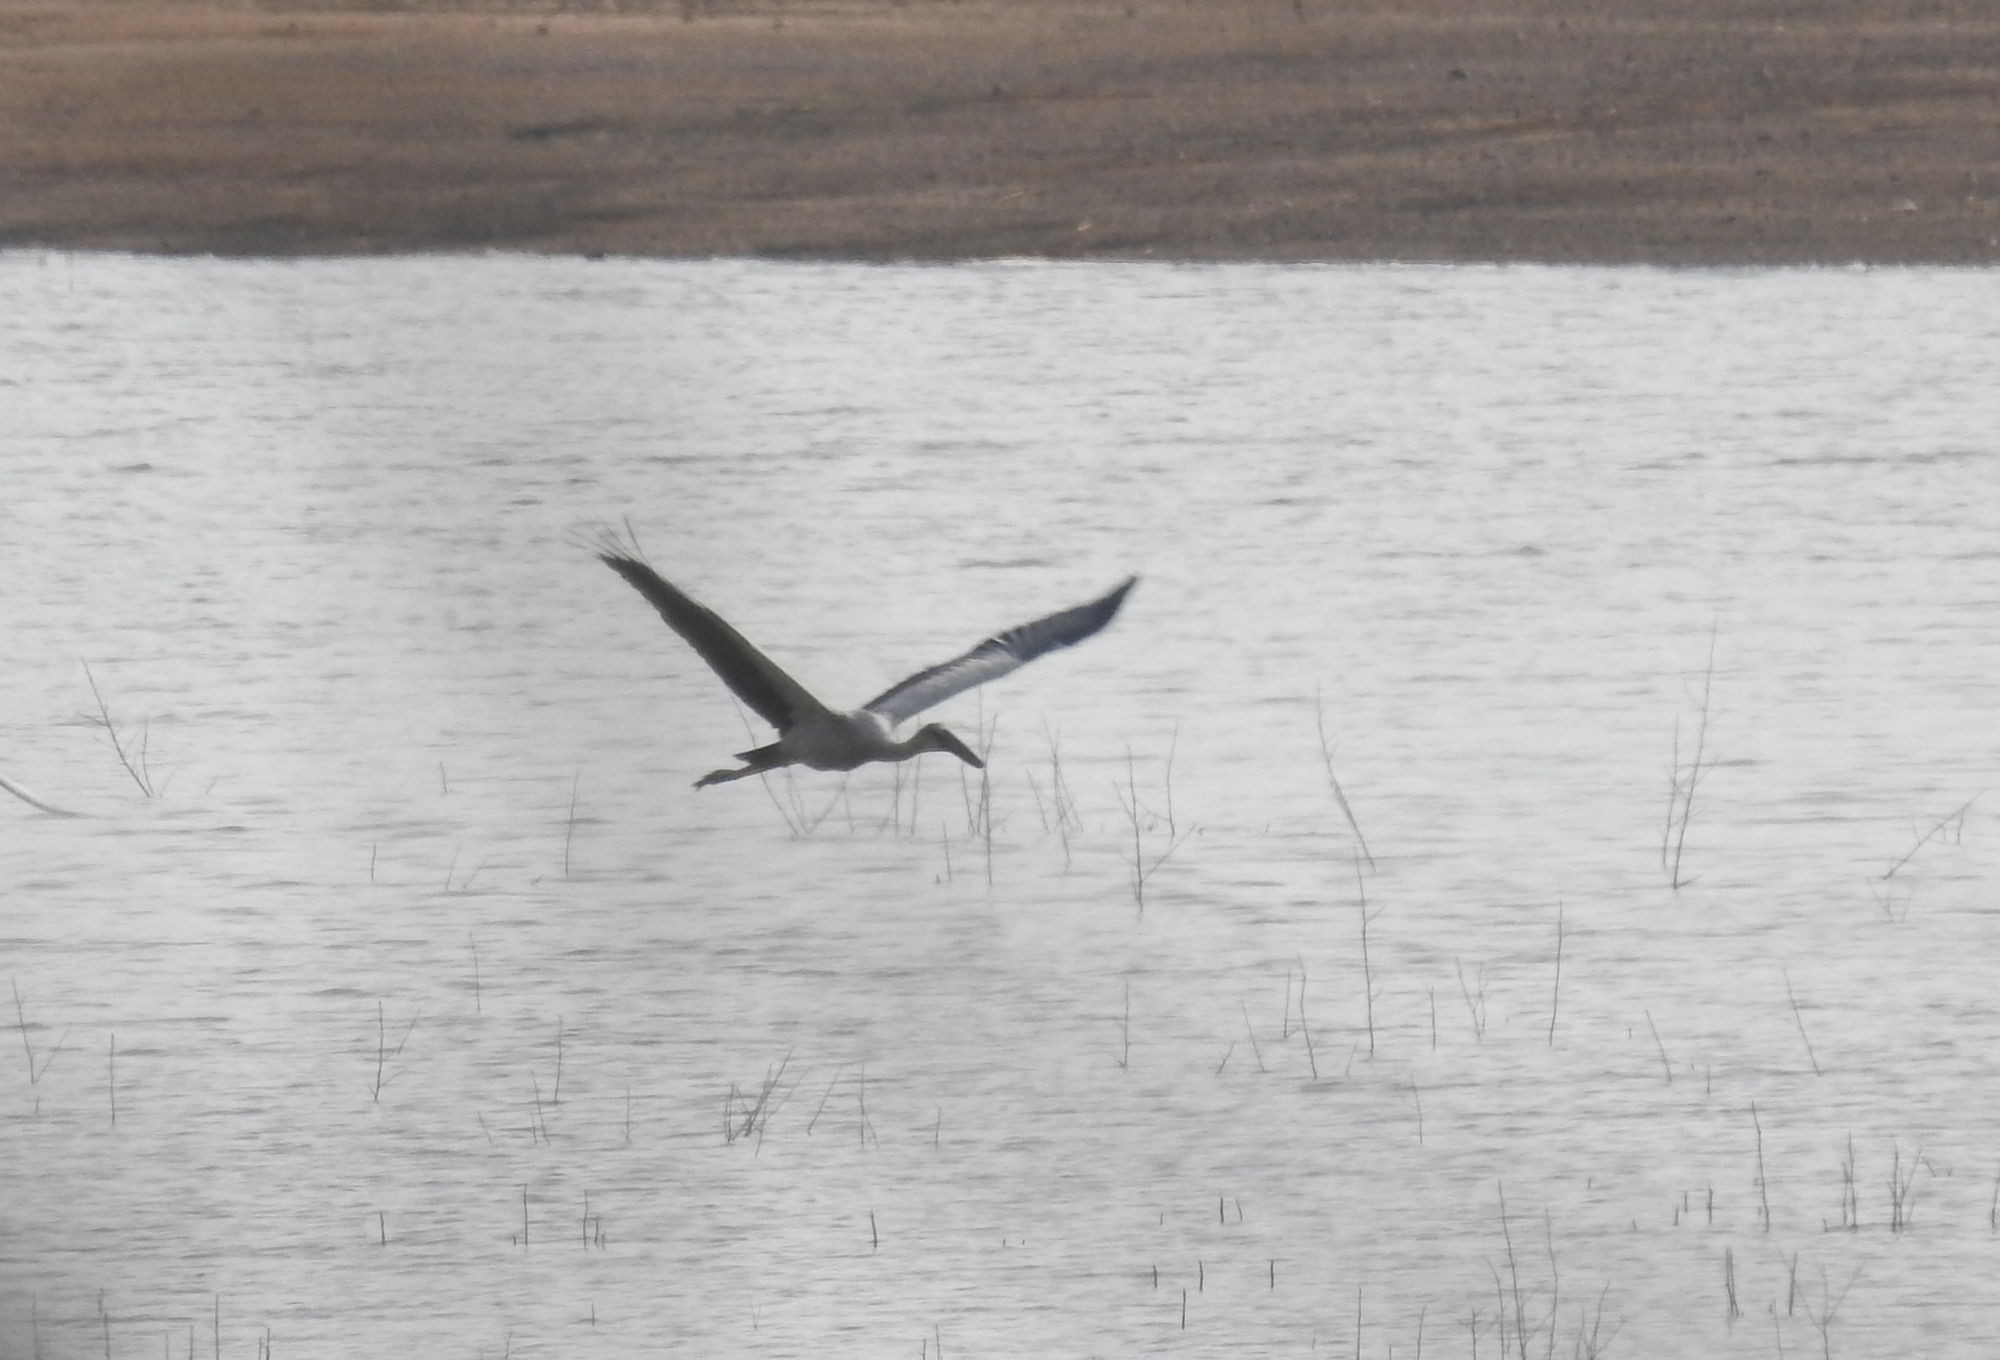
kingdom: Animalia
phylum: Chordata
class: Aves
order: Ciconiiformes
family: Ciconiidae
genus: Anastomus
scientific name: Anastomus oscitans
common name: Asian openbill
